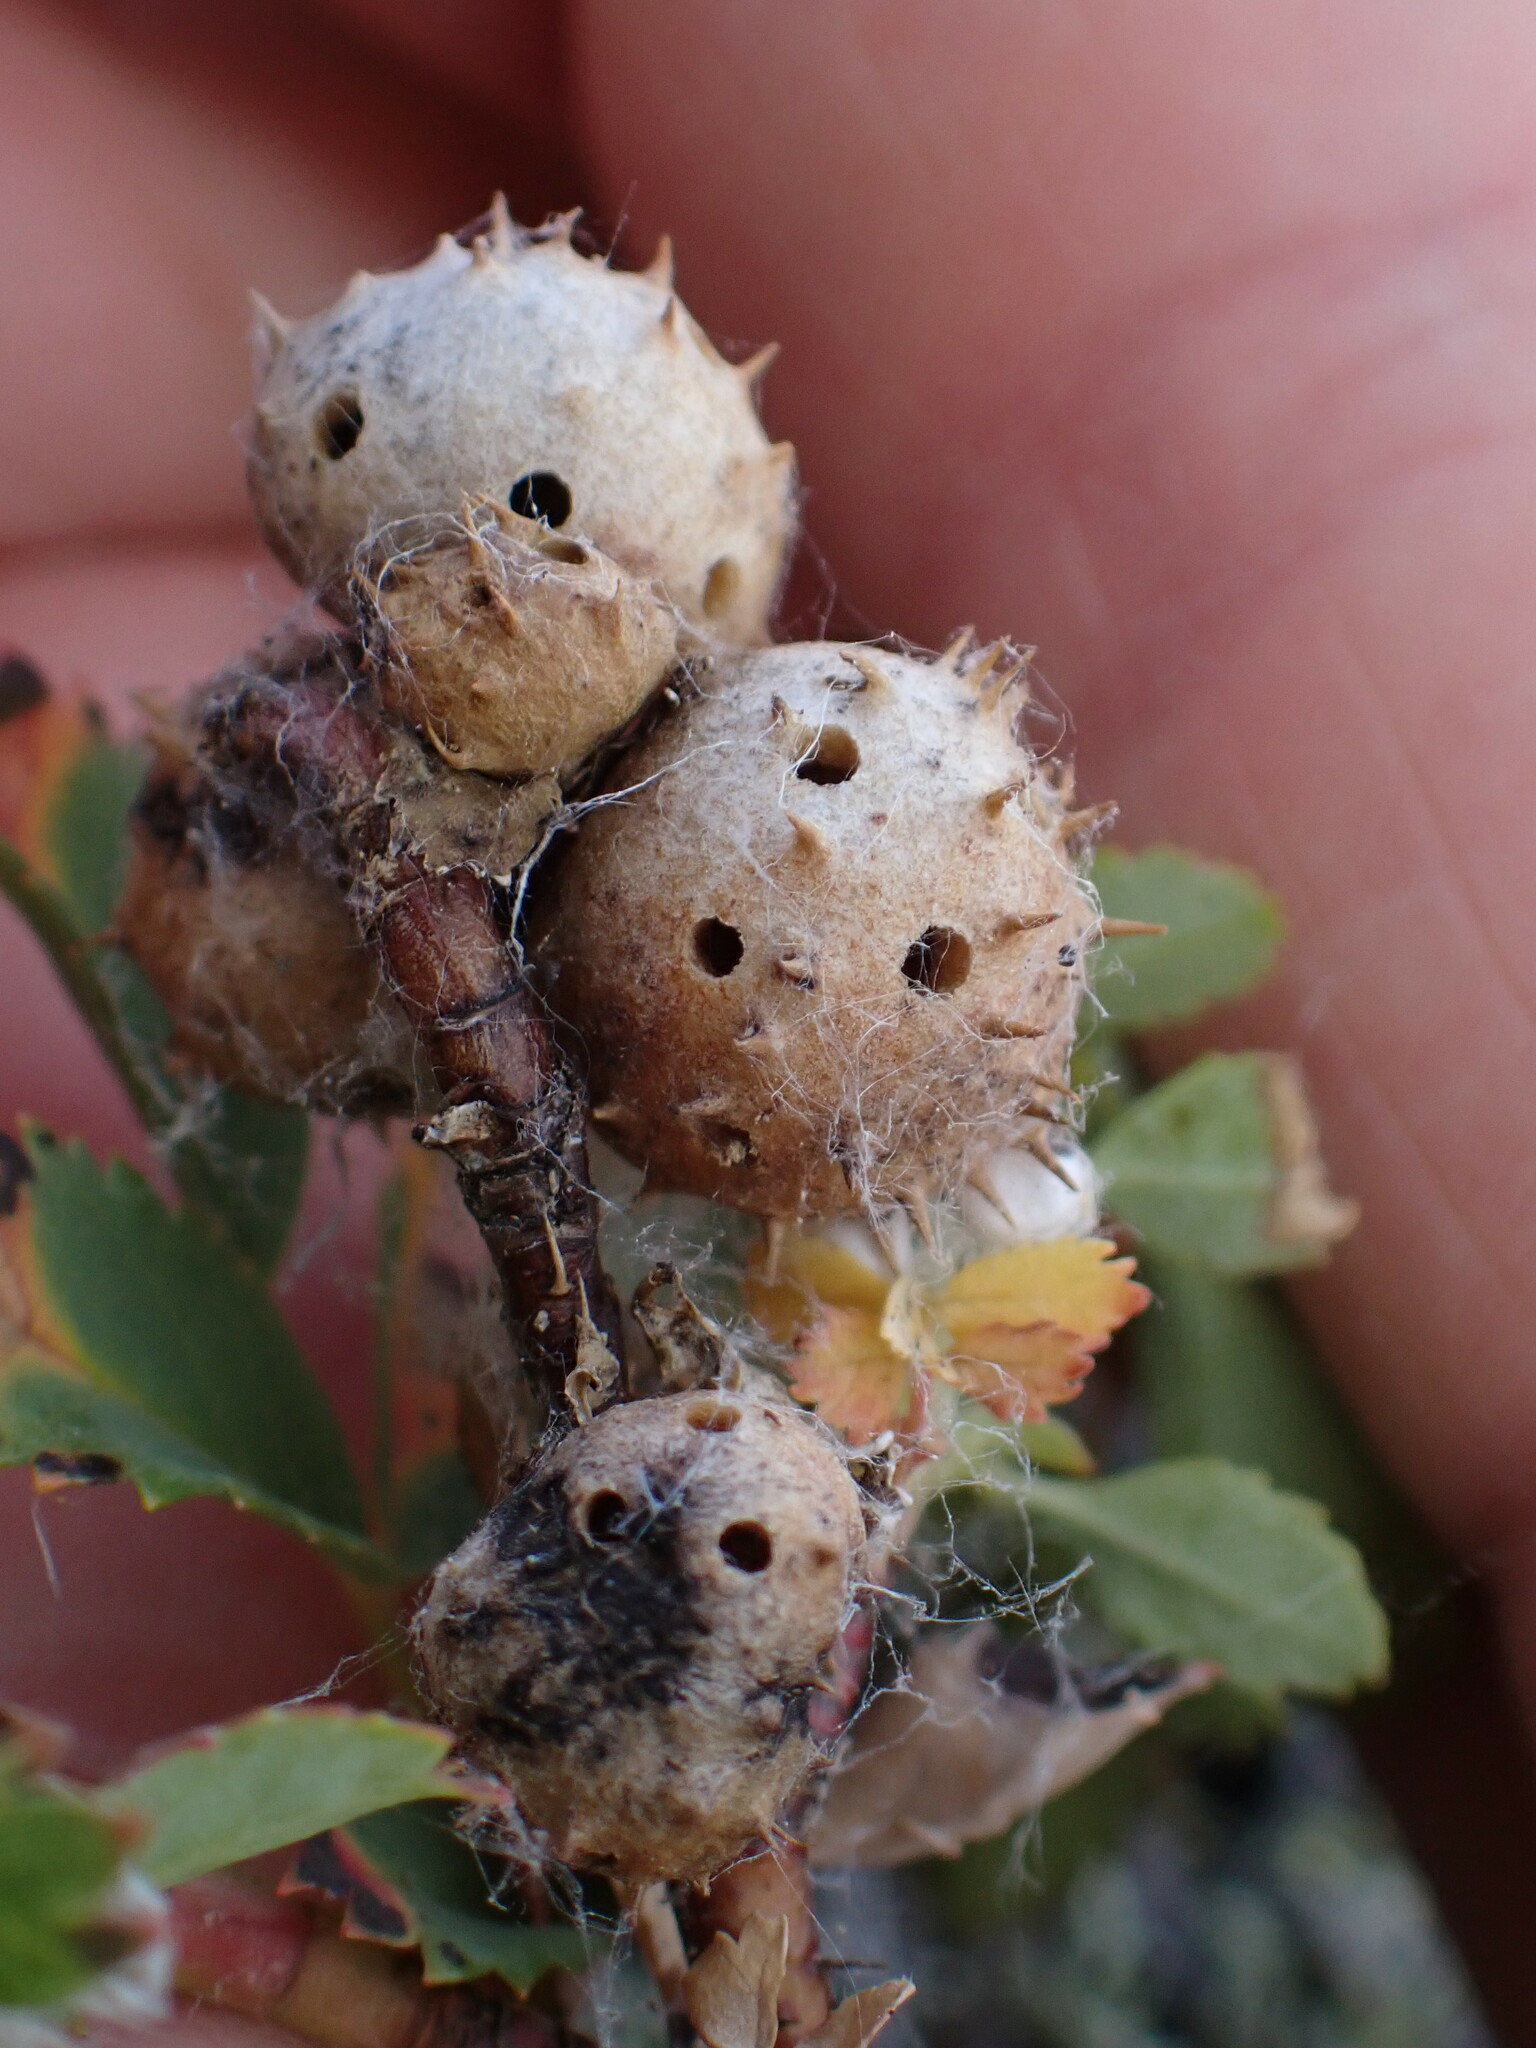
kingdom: Animalia
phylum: Arthropoda
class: Insecta
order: Hymenoptera
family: Cynipidae
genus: Diplolepis
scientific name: Diplolepis polita
